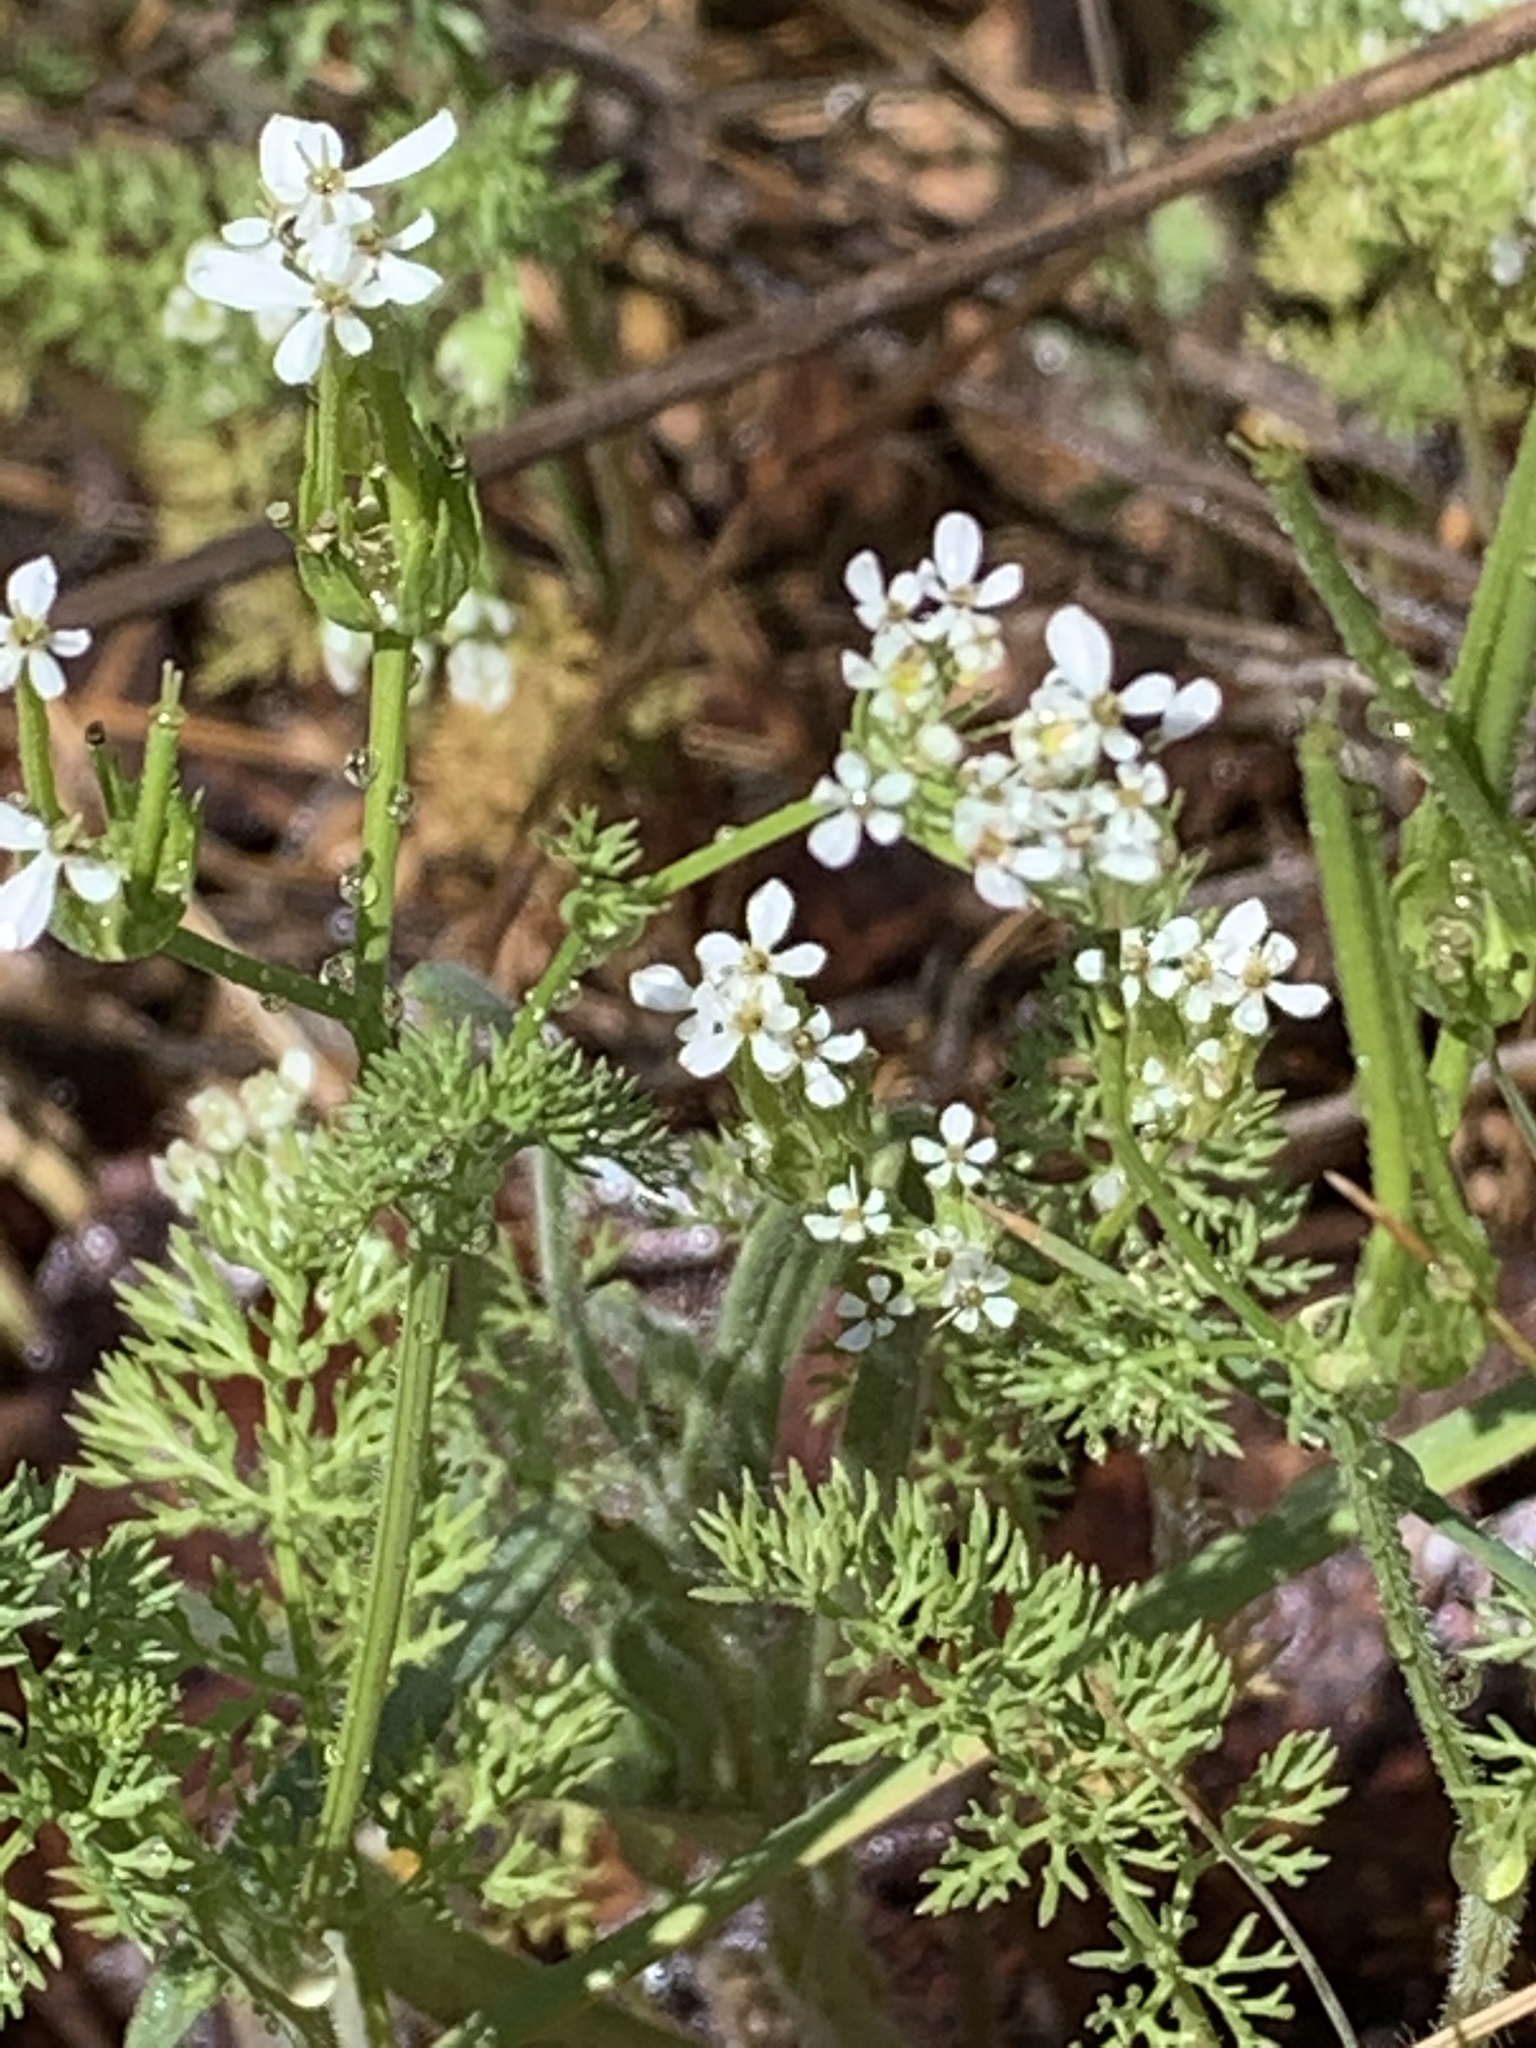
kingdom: Plantae
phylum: Tracheophyta
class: Magnoliopsida
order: Apiales
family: Apiaceae
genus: Scandix
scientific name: Scandix pecten-veneris
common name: Shepherd's-needle
